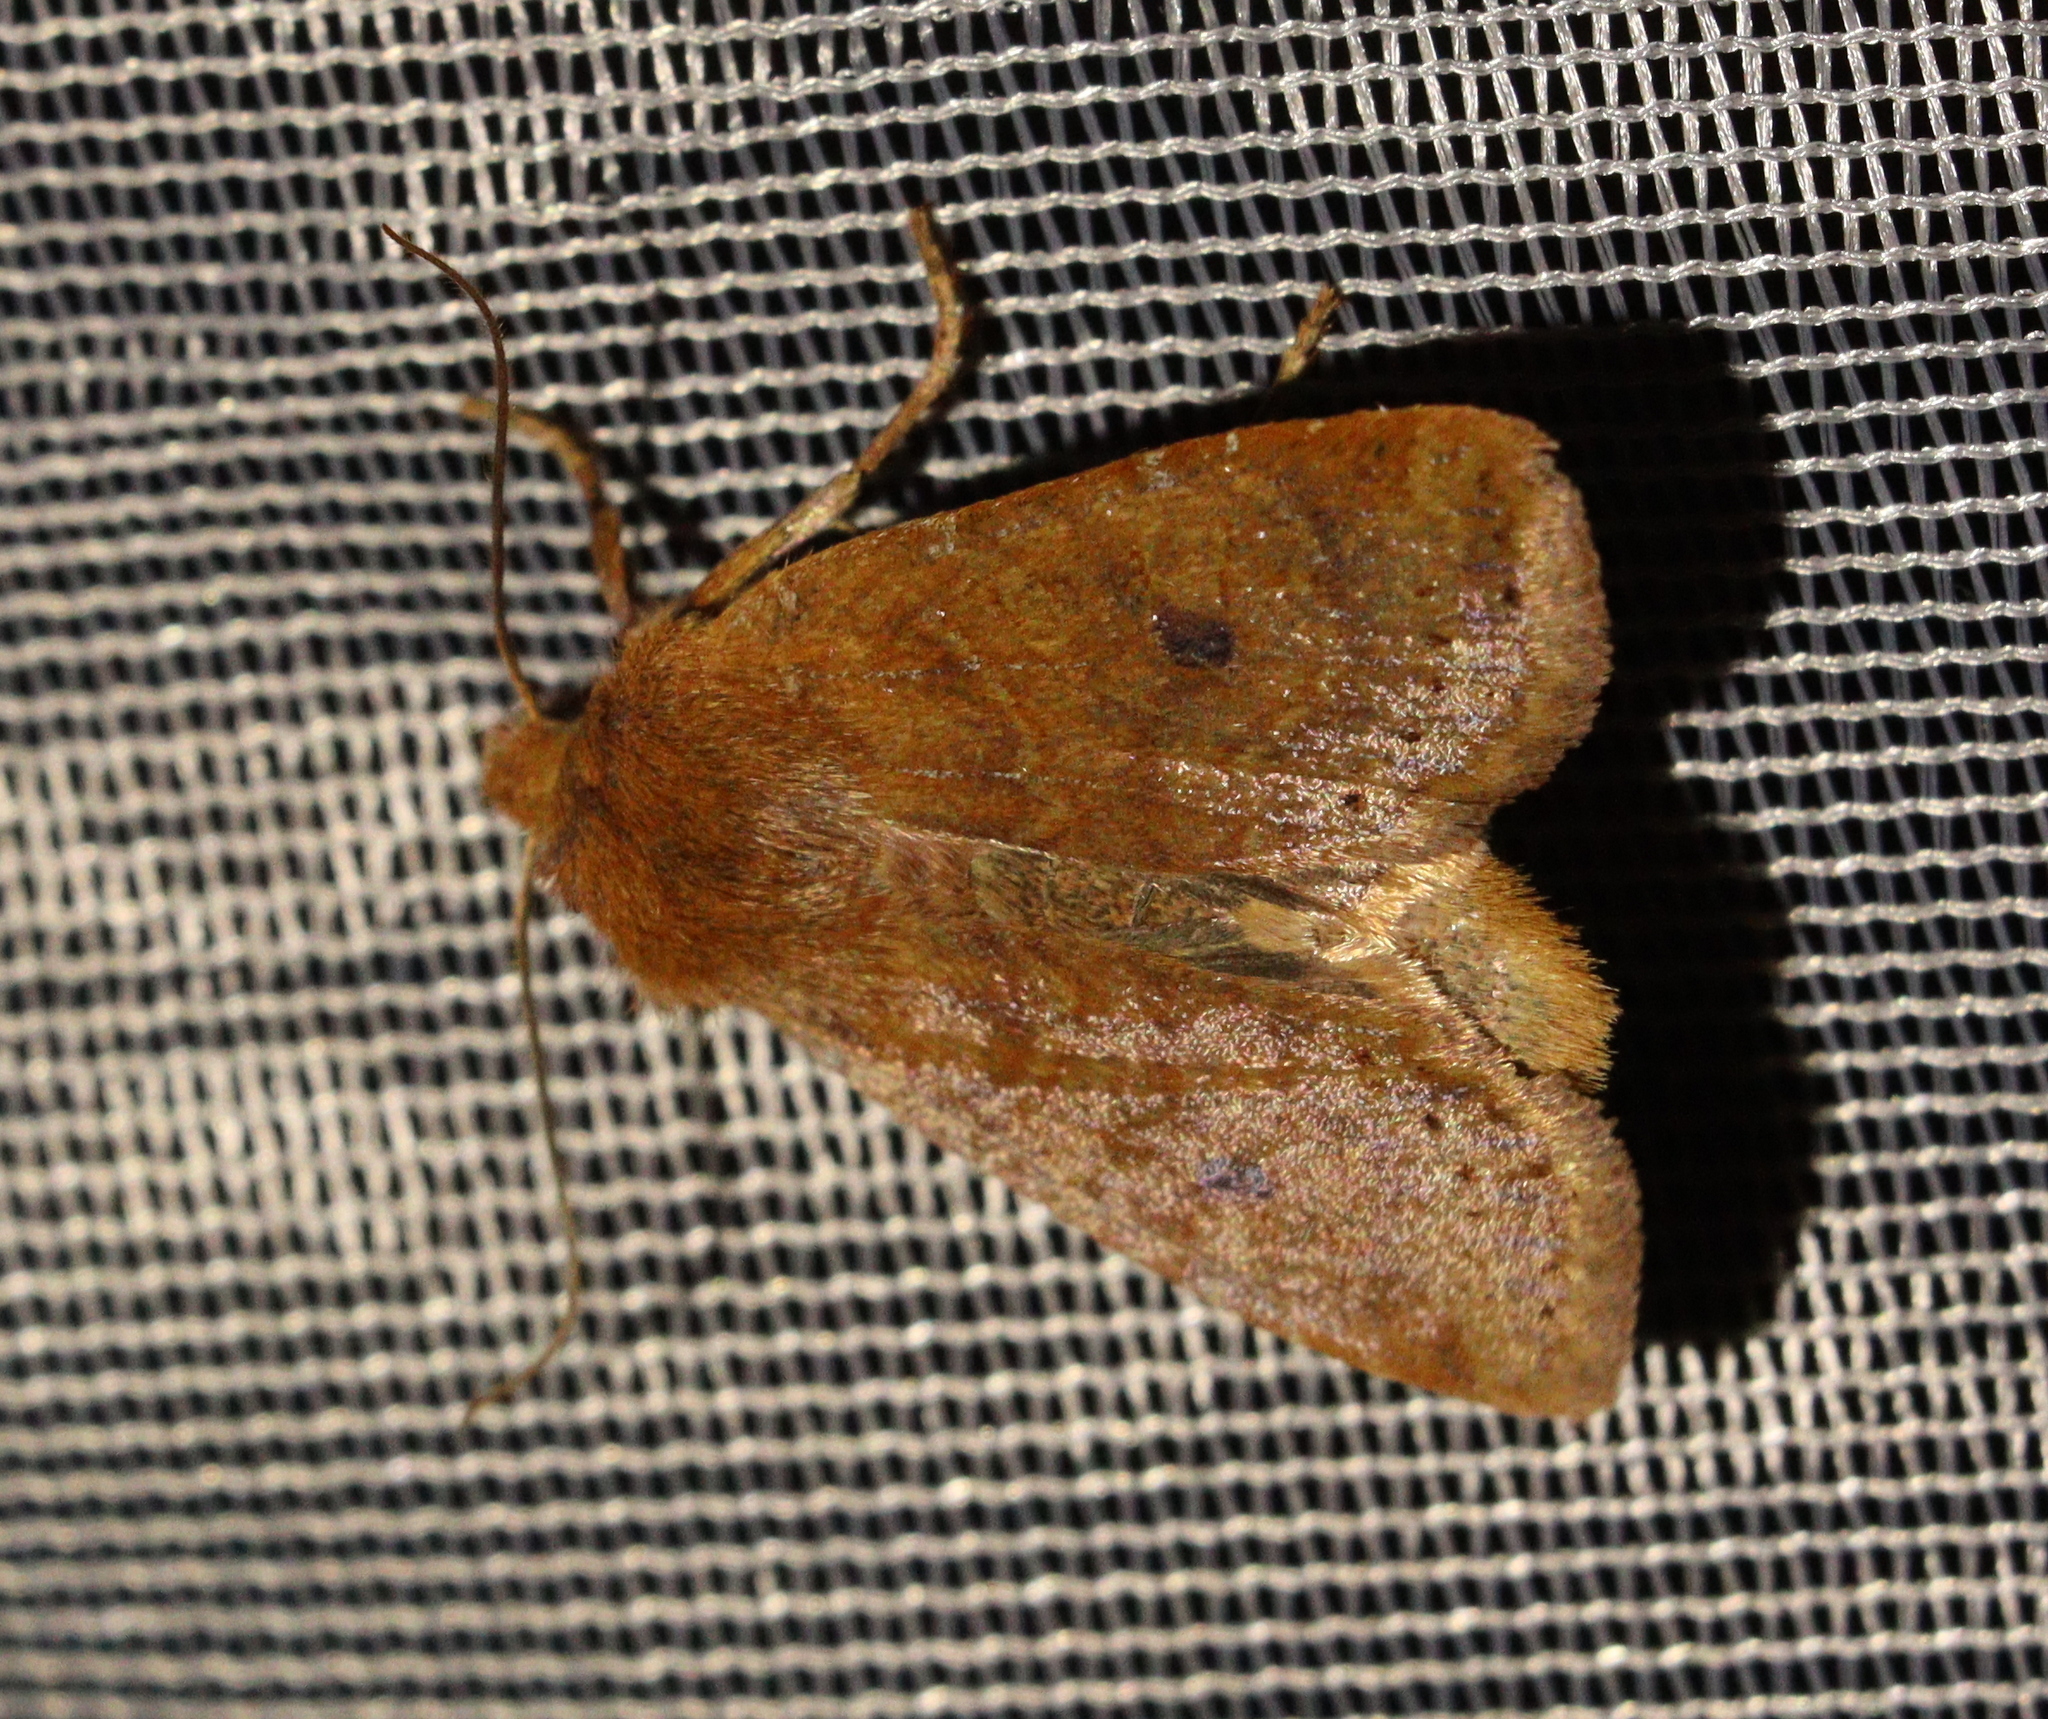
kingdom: Animalia
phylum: Arthropoda
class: Insecta
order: Lepidoptera
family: Noctuidae
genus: Conistra
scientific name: Conistra vaccinii
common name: Chestnut
